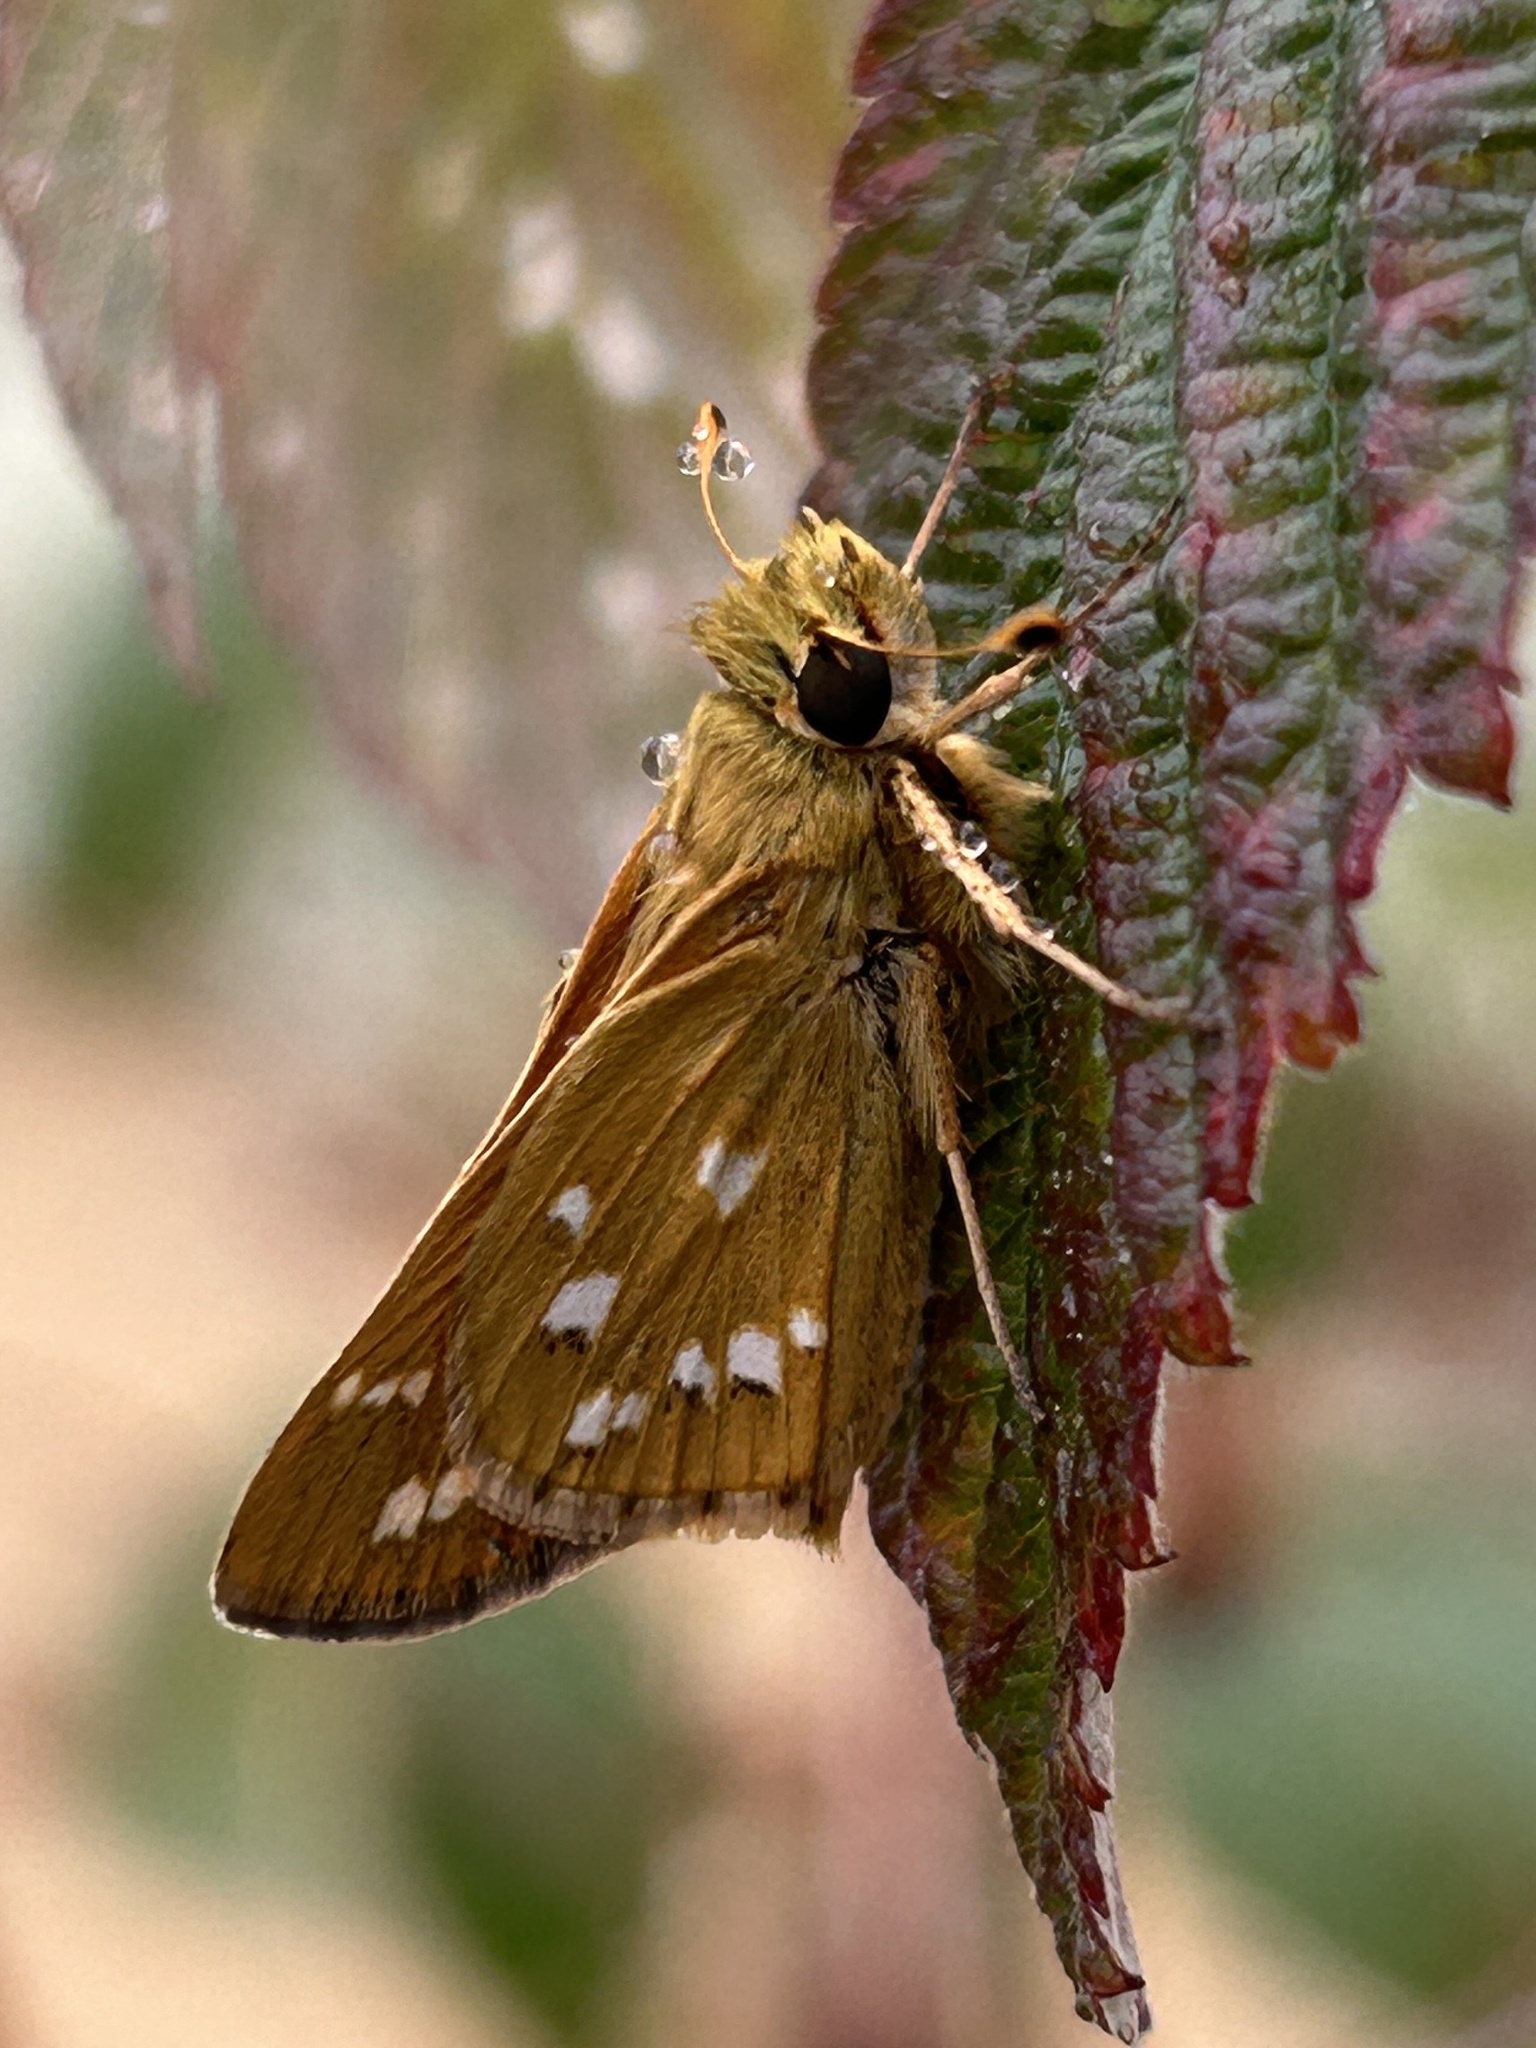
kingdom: Animalia
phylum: Arthropoda
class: Insecta
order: Lepidoptera
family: Hesperiidae
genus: Hesperia
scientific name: Hesperia comma
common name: Common branded skipper
